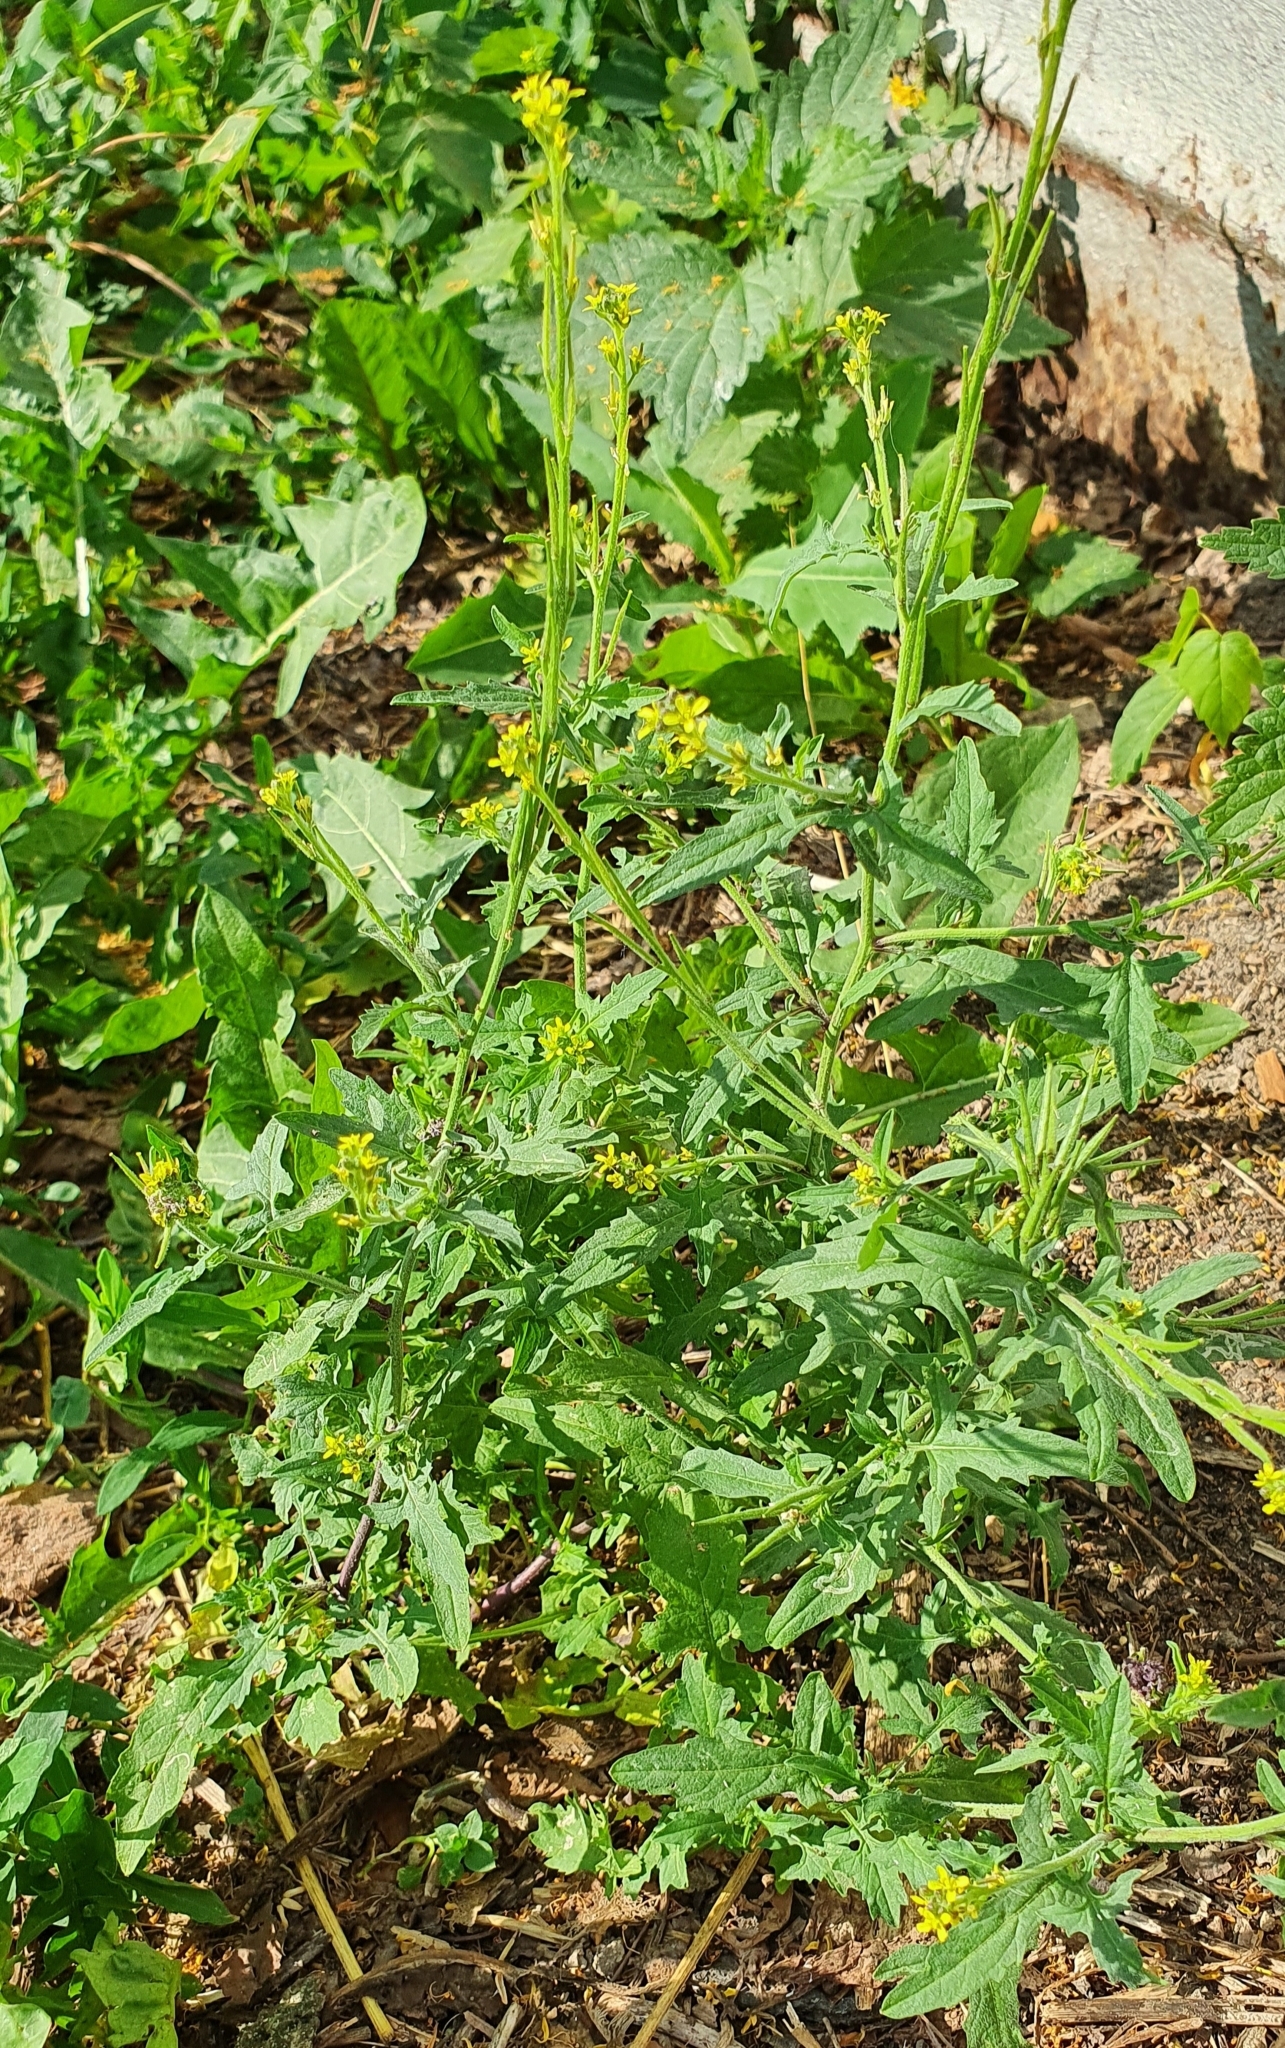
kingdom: Plantae
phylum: Tracheophyta
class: Magnoliopsida
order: Brassicales
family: Brassicaceae
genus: Sisymbrium
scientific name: Sisymbrium officinale
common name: Hedge mustard
